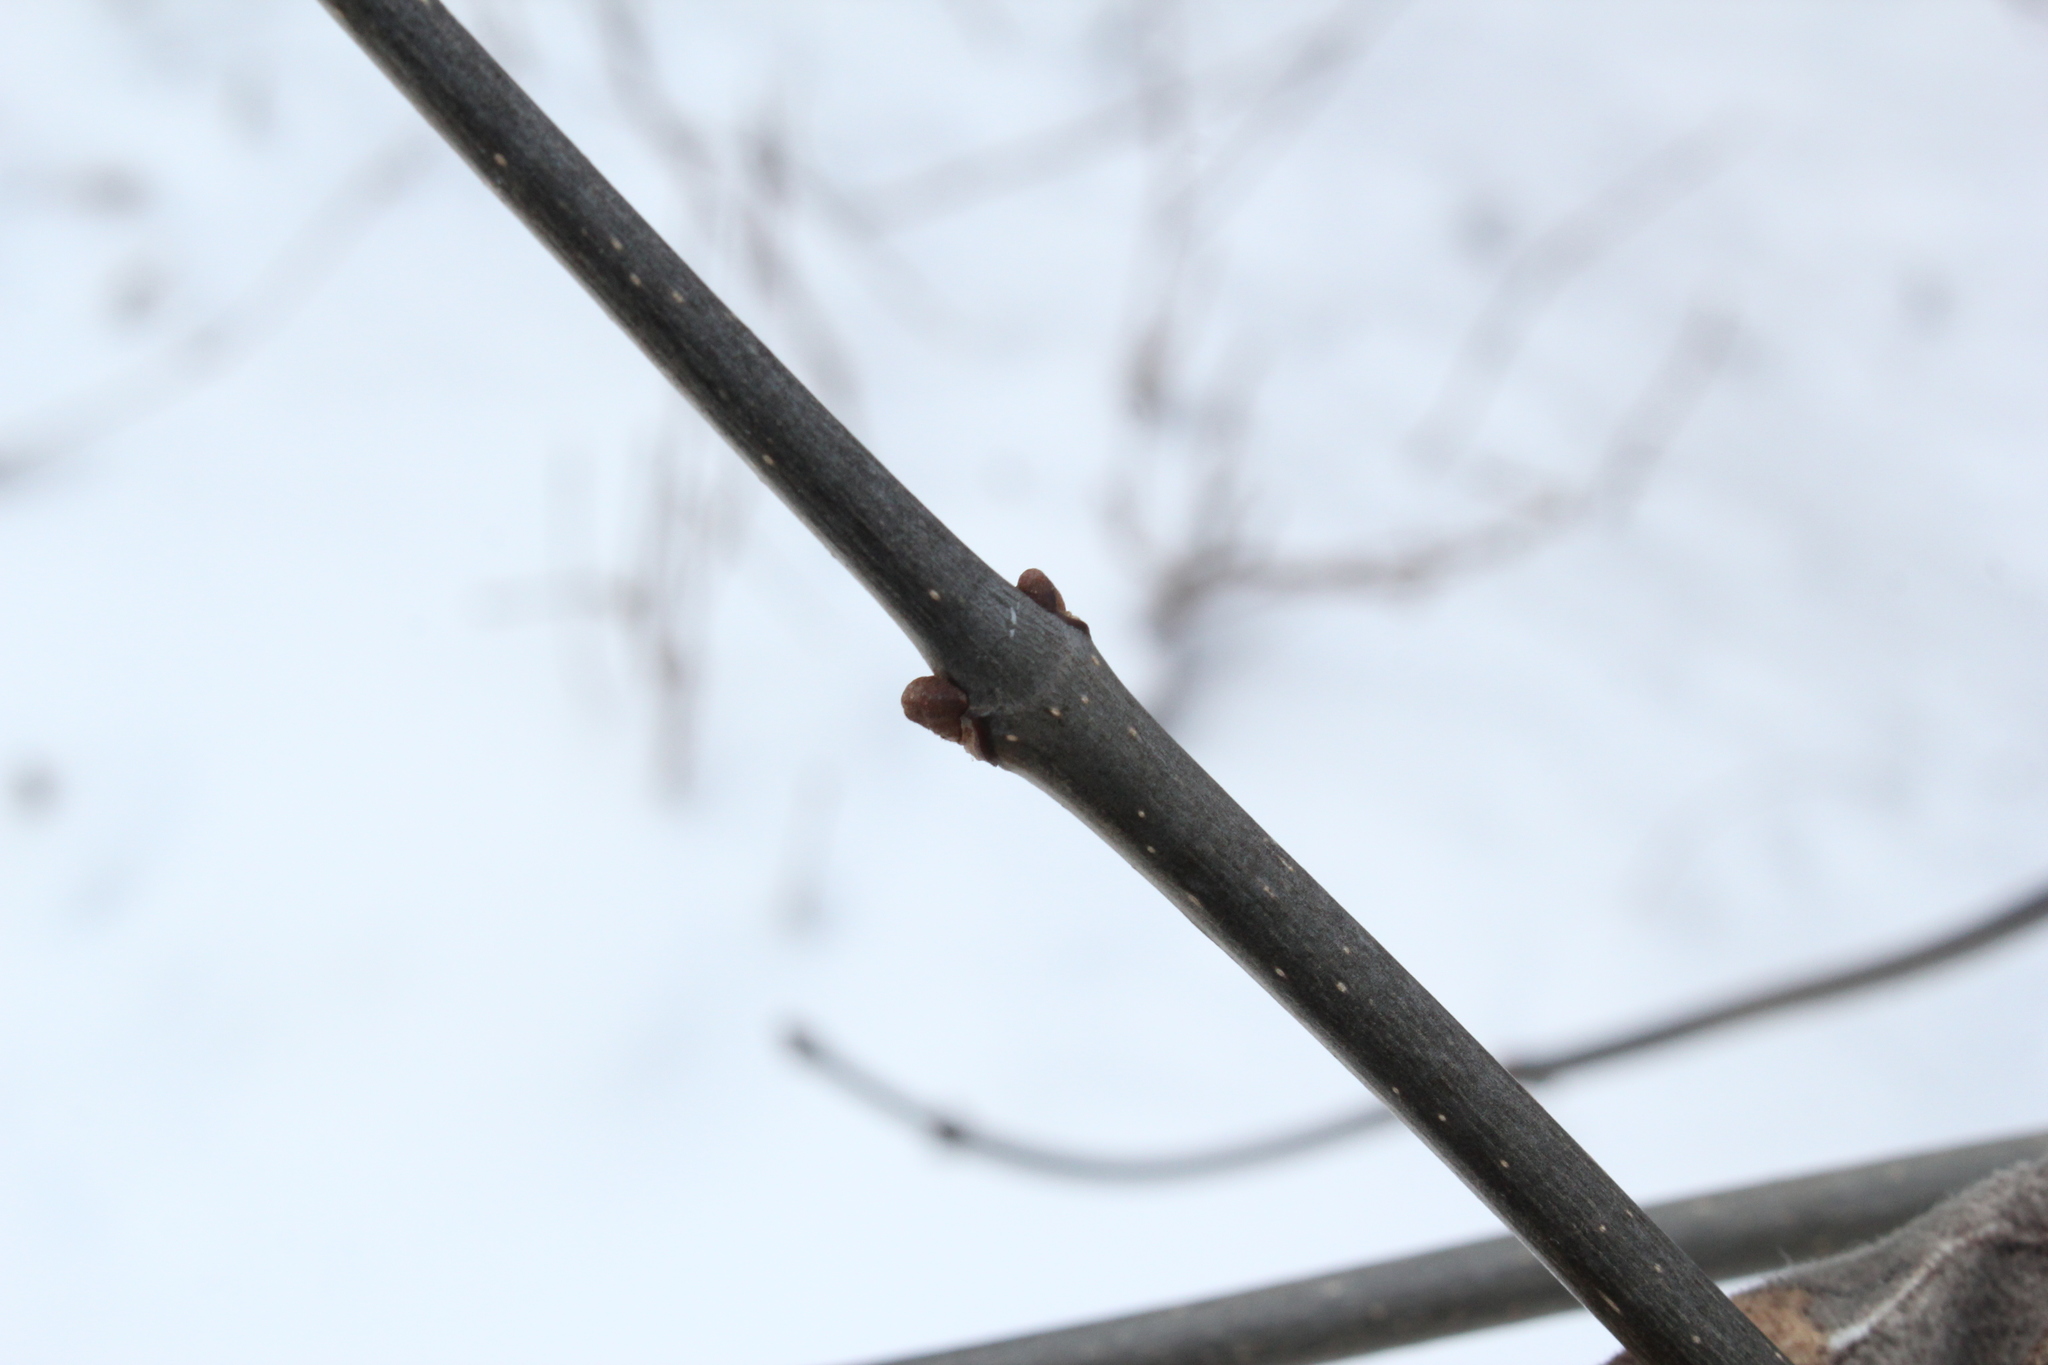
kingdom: Plantae
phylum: Tracheophyta
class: Magnoliopsida
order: Lamiales
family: Oleaceae
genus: Fraxinus
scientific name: Fraxinus americana
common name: White ash
